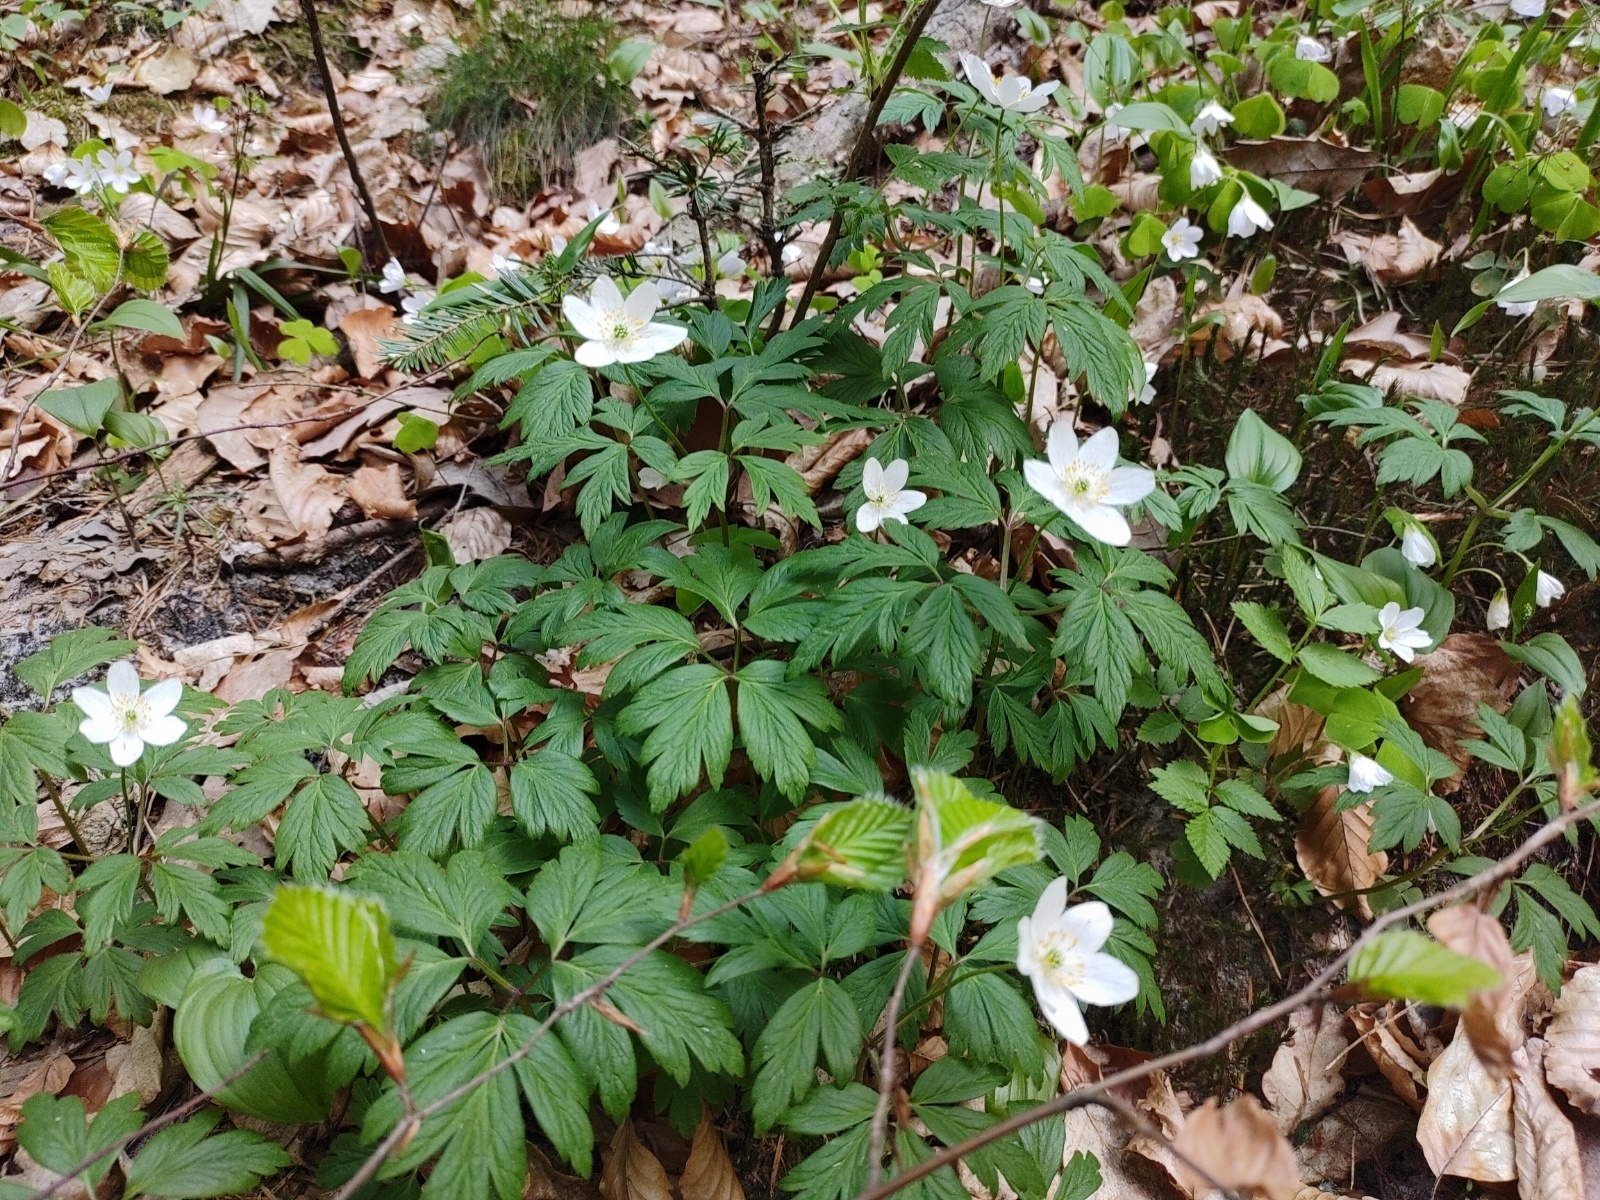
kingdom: Plantae
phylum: Tracheophyta
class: Magnoliopsida
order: Ranunculales
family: Ranunculaceae
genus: Anemone
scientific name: Anemone nemorosa
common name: Wood anemone
